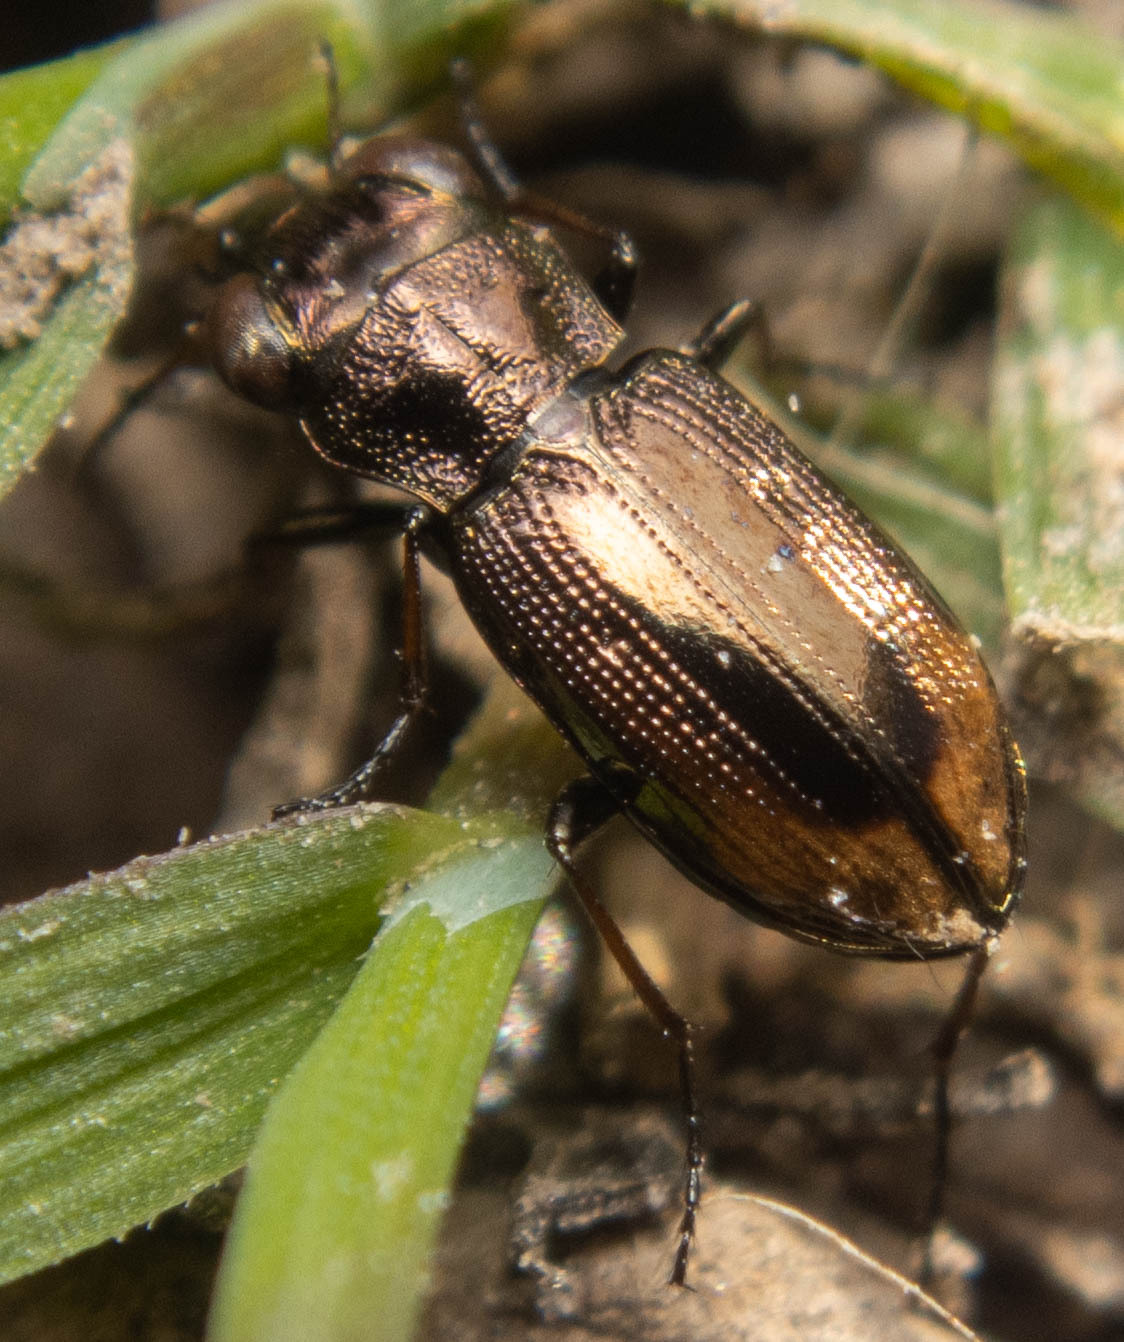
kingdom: Animalia
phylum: Arthropoda
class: Insecta
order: Coleoptera
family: Carabidae
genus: Notiophilus
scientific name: Notiophilus biguttatus
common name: Spotted gazelle beetle
